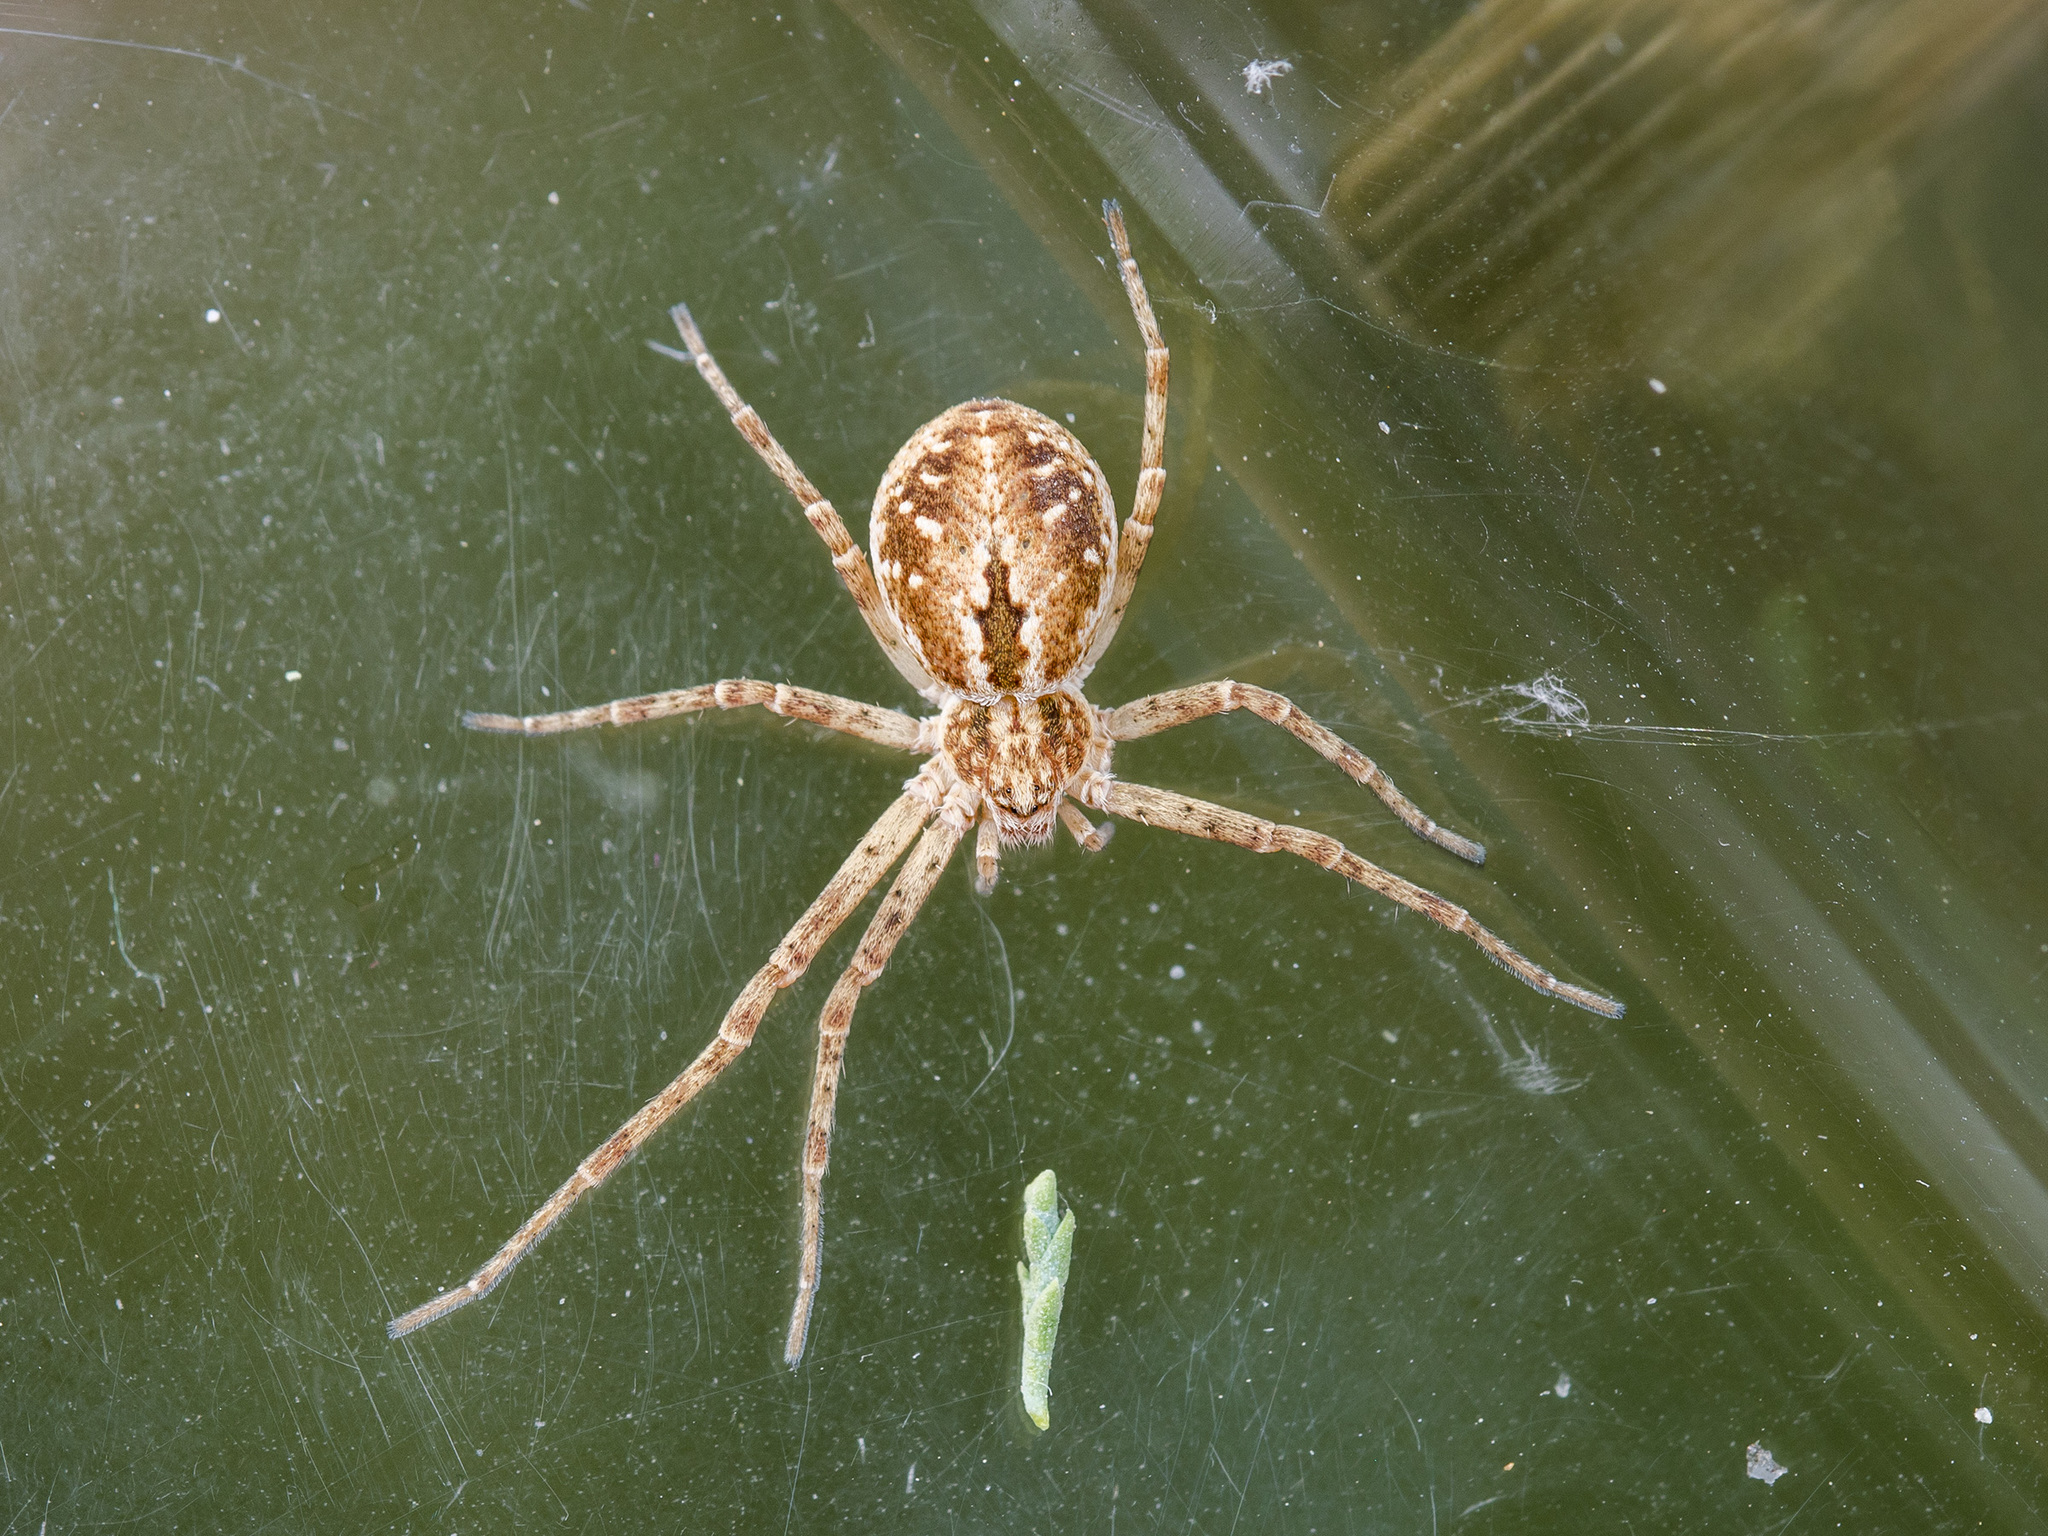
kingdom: Animalia
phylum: Arthropoda
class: Arachnida
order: Araneae
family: Philodromidae
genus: Rhysodromus
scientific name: Rhysodromus fallax
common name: Sand running-spider
